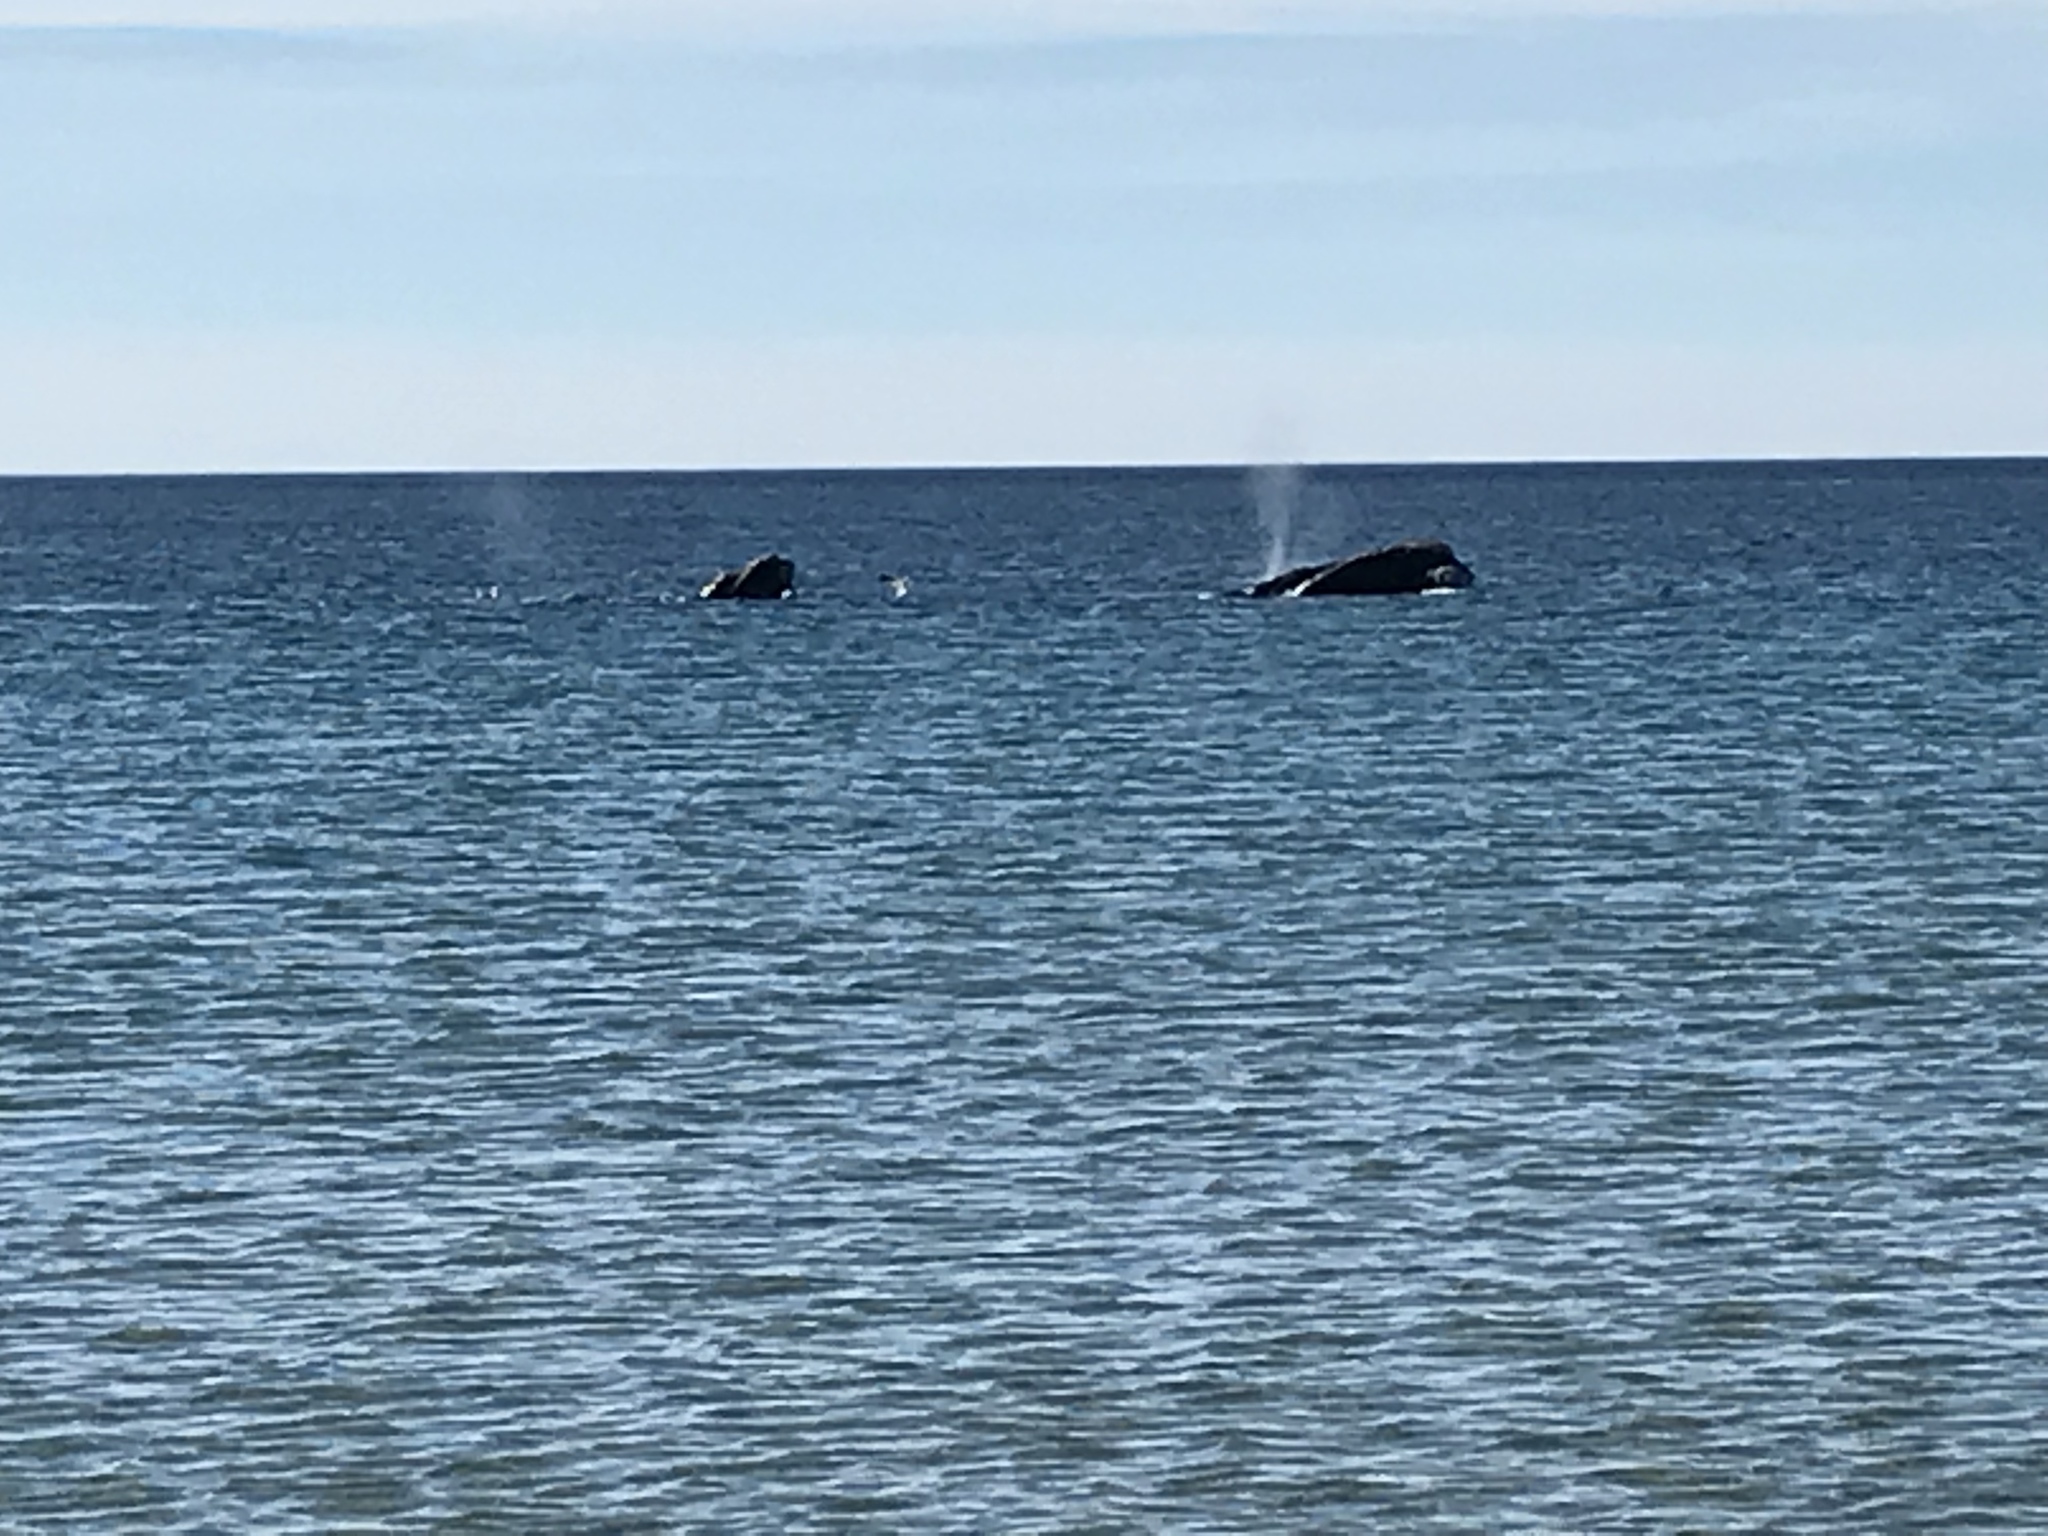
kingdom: Animalia
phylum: Chordata
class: Mammalia
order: Cetacea
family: Balaenidae
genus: Eubalaena
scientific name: Eubalaena australis
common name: Southern right whale
